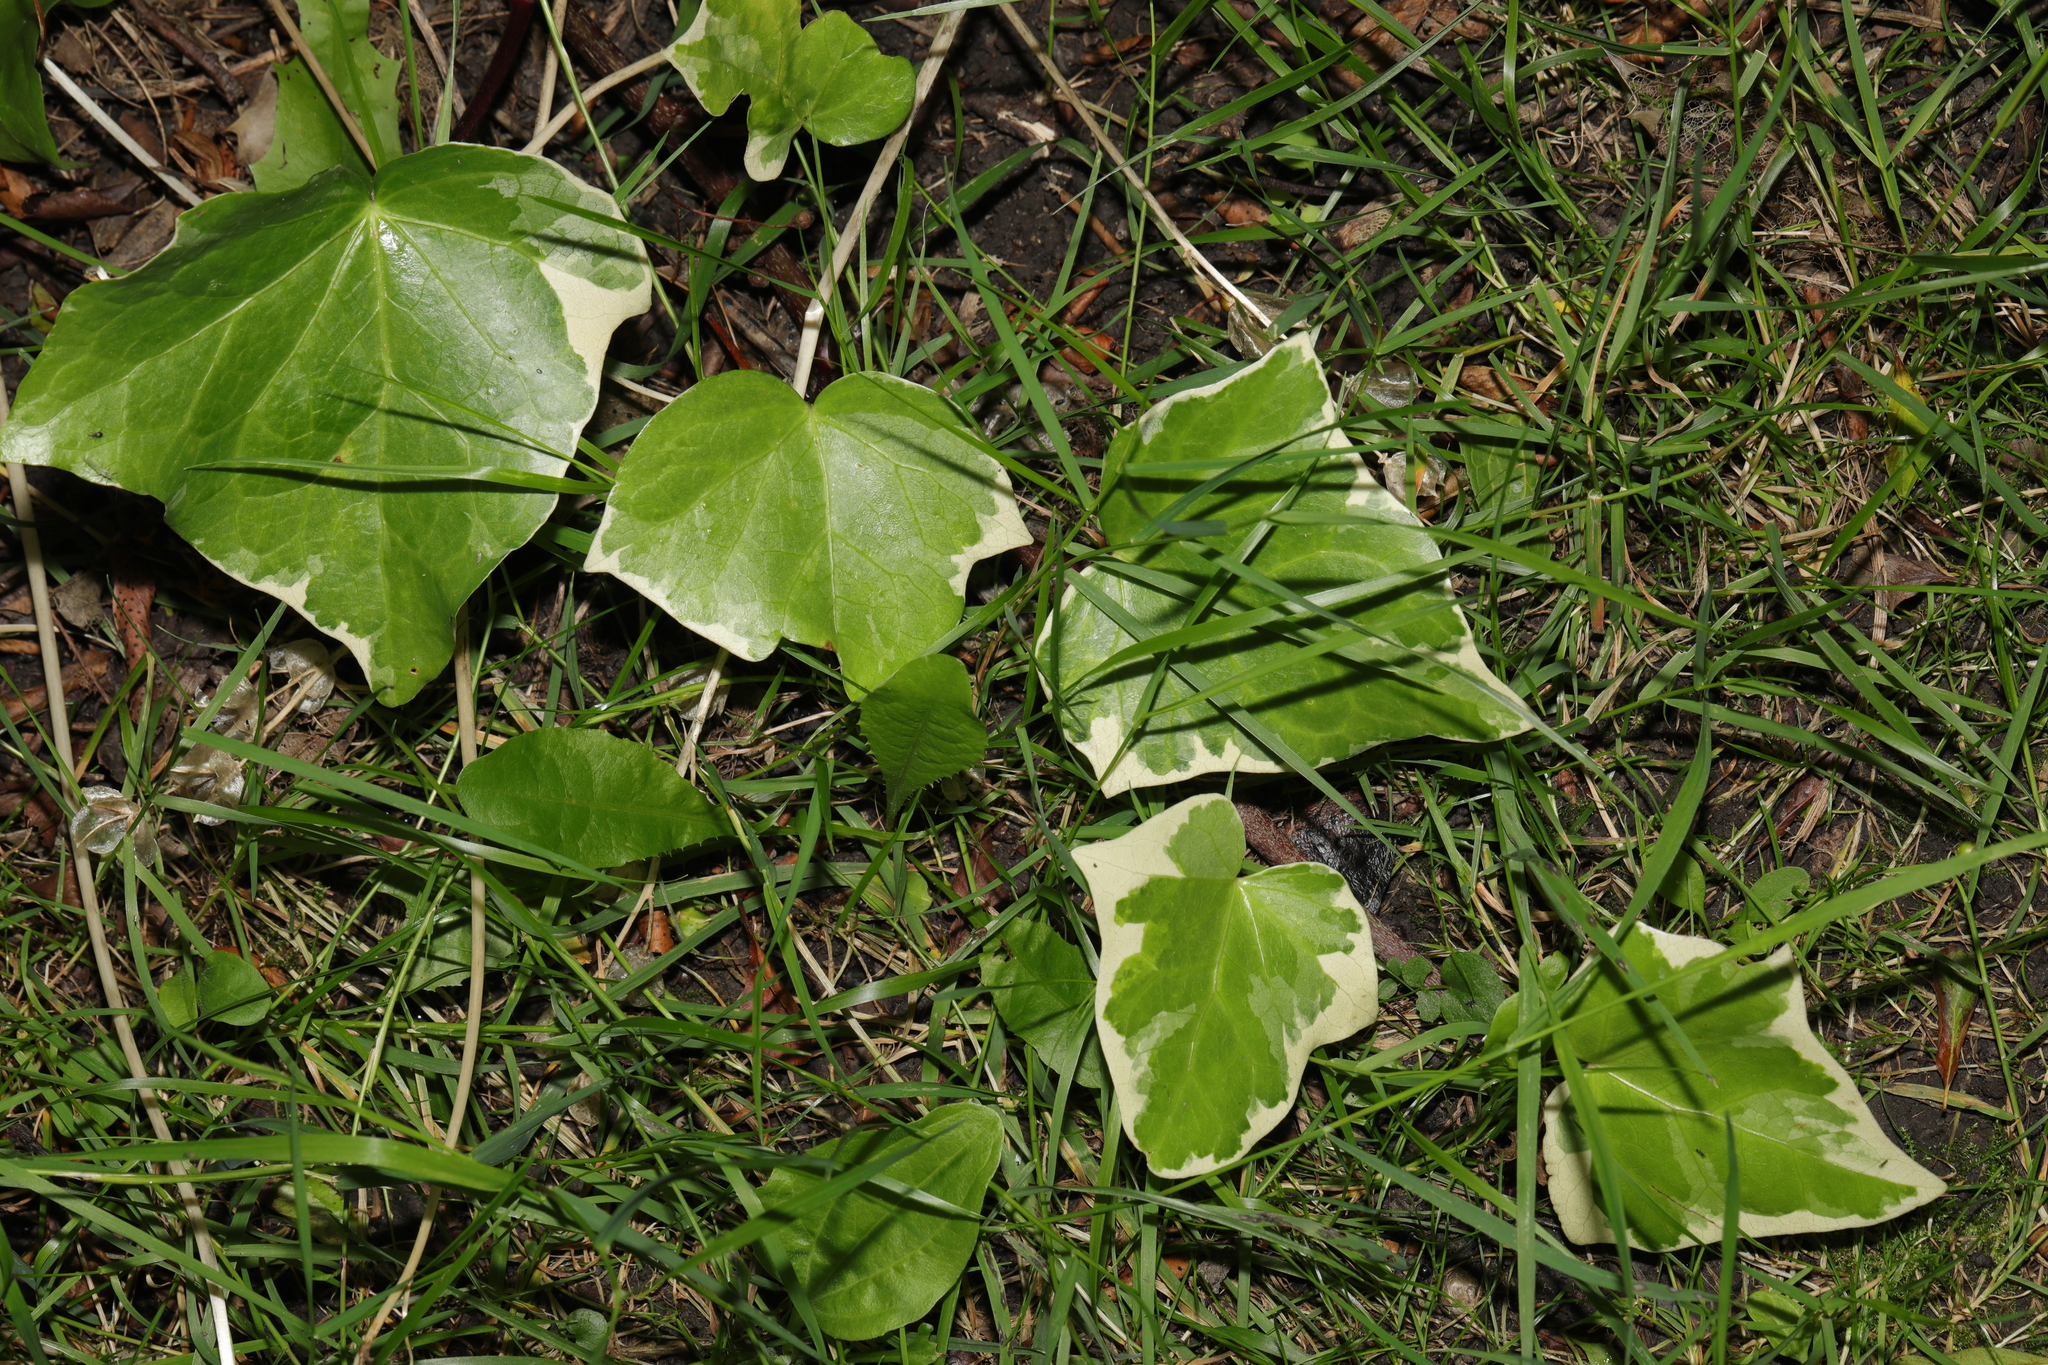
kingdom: Plantae
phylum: Tracheophyta
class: Magnoliopsida
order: Apiales
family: Araliaceae
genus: Hedera
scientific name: Hedera colchica
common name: Persian ivy
